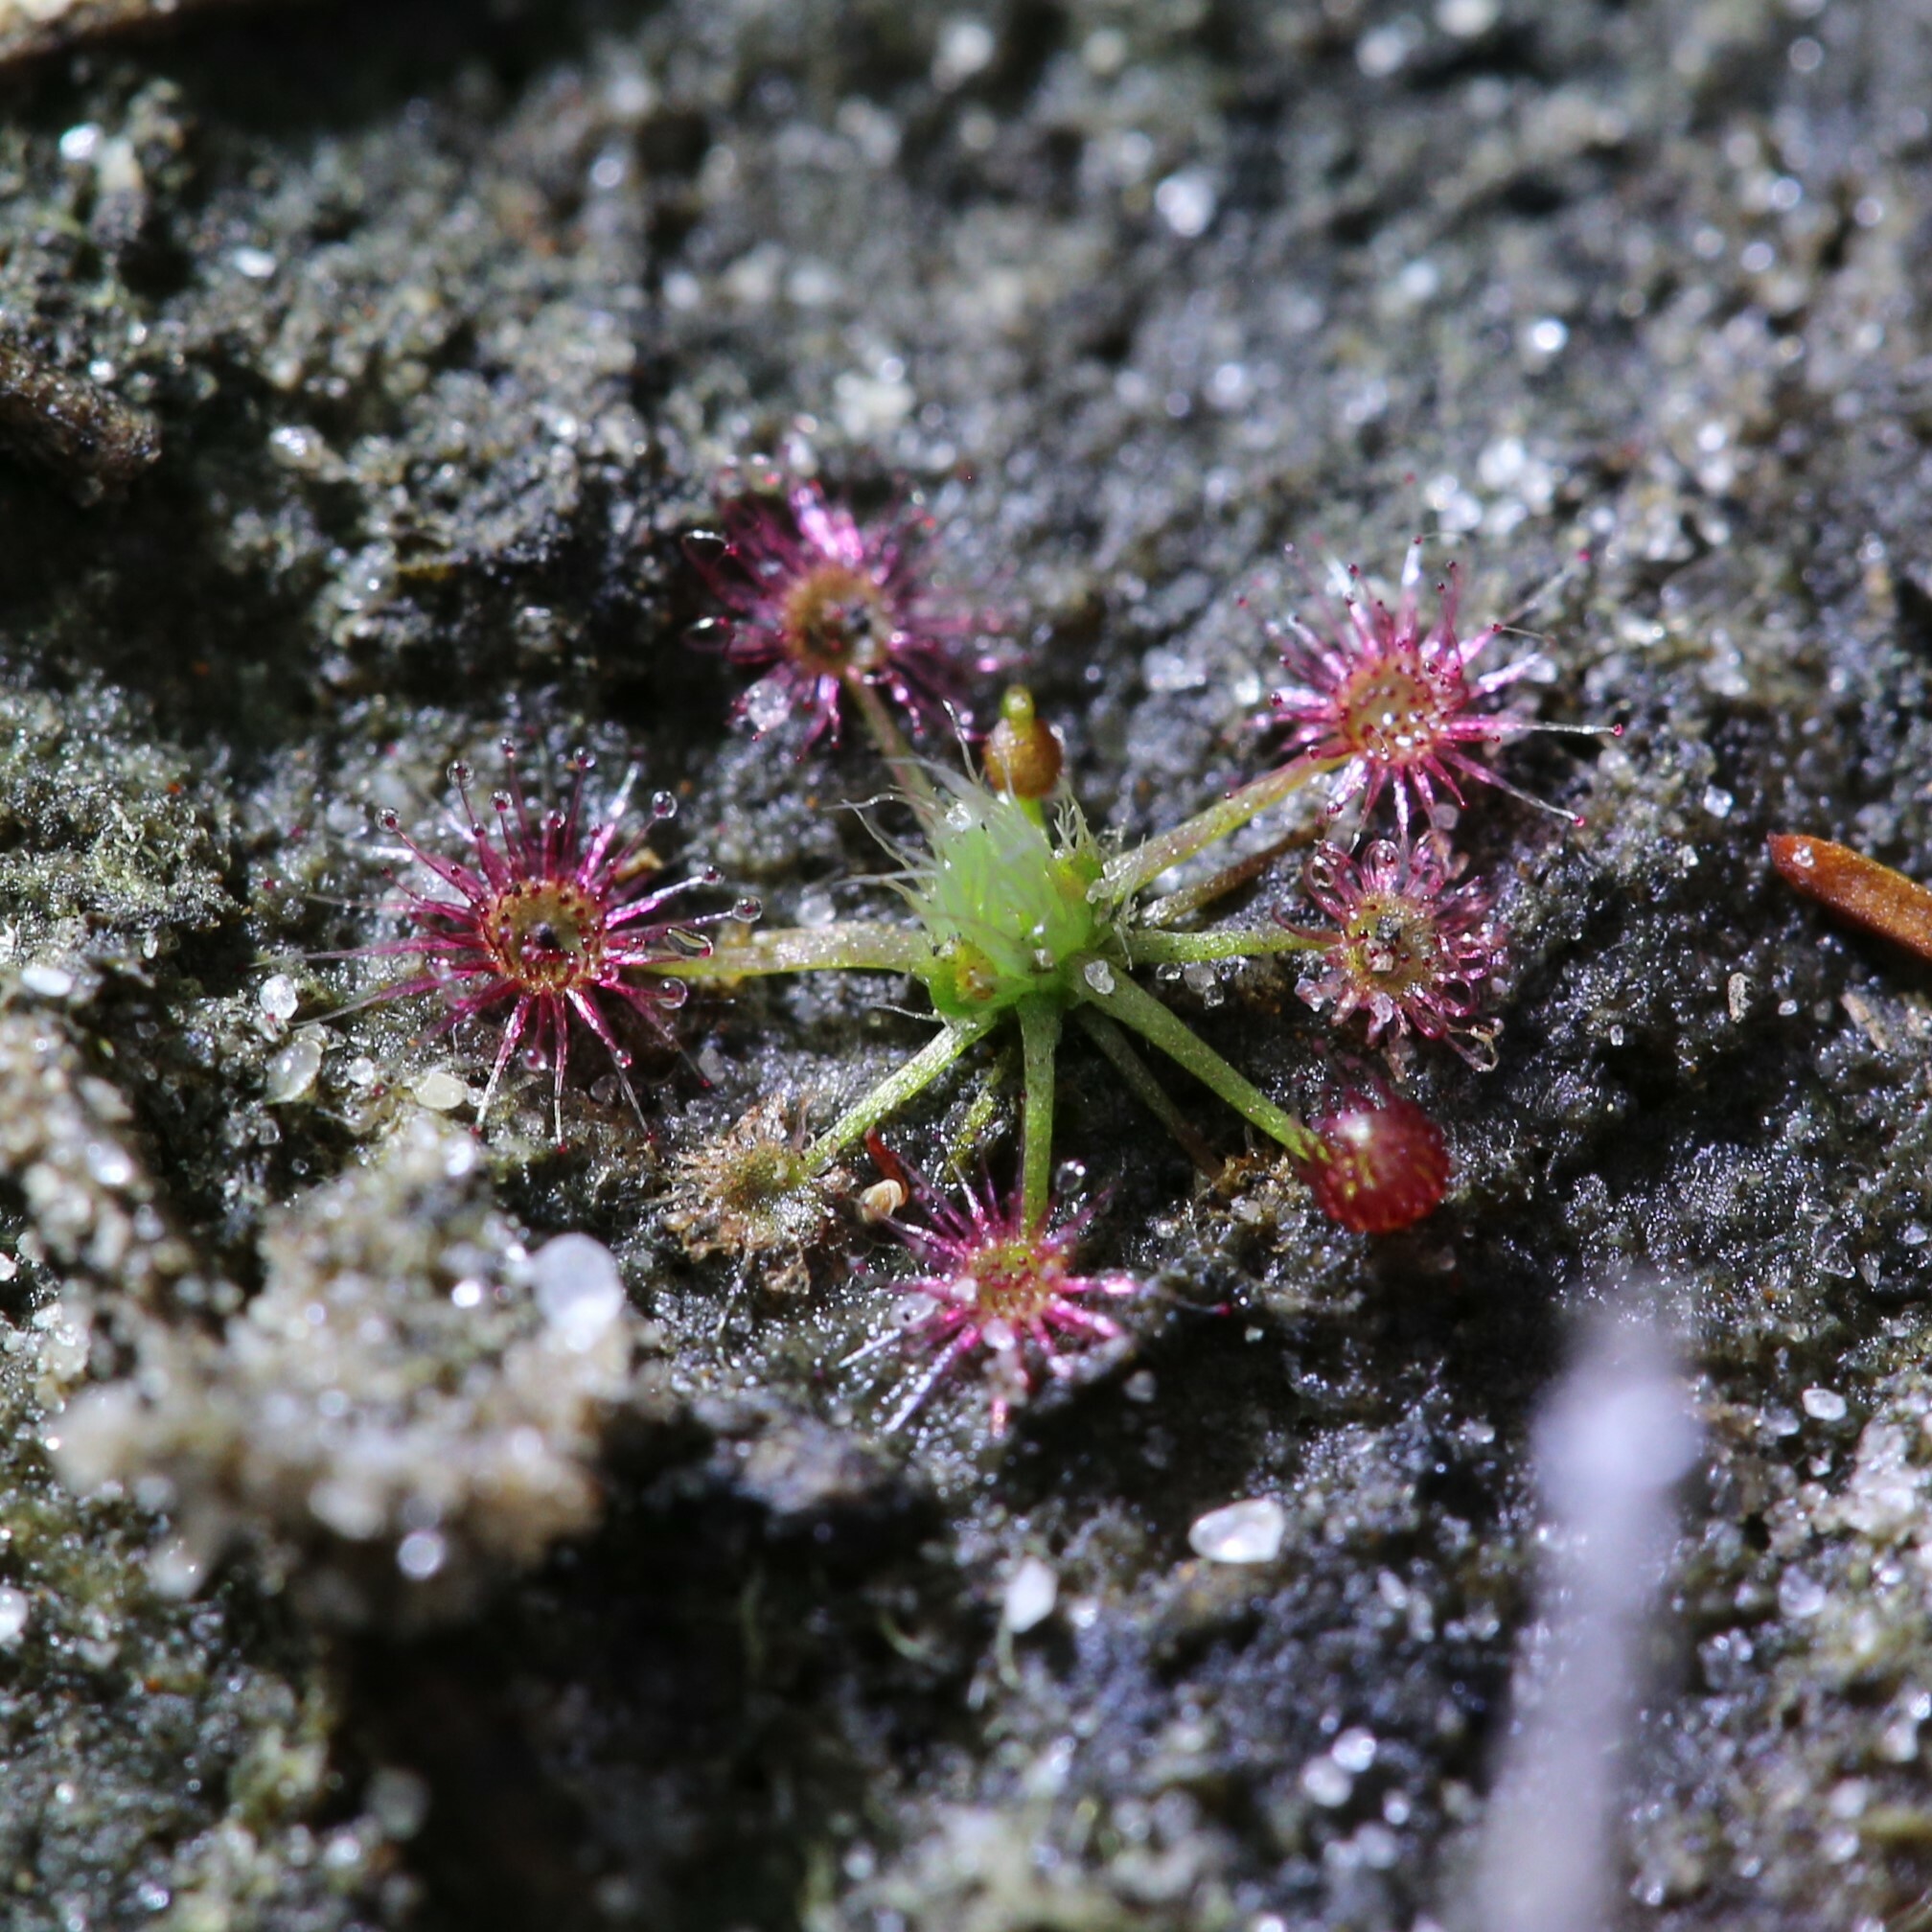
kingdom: Plantae
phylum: Tracheophyta
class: Magnoliopsida
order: Caryophyllales
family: Droseraceae
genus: Drosera
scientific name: Drosera occidentalis
